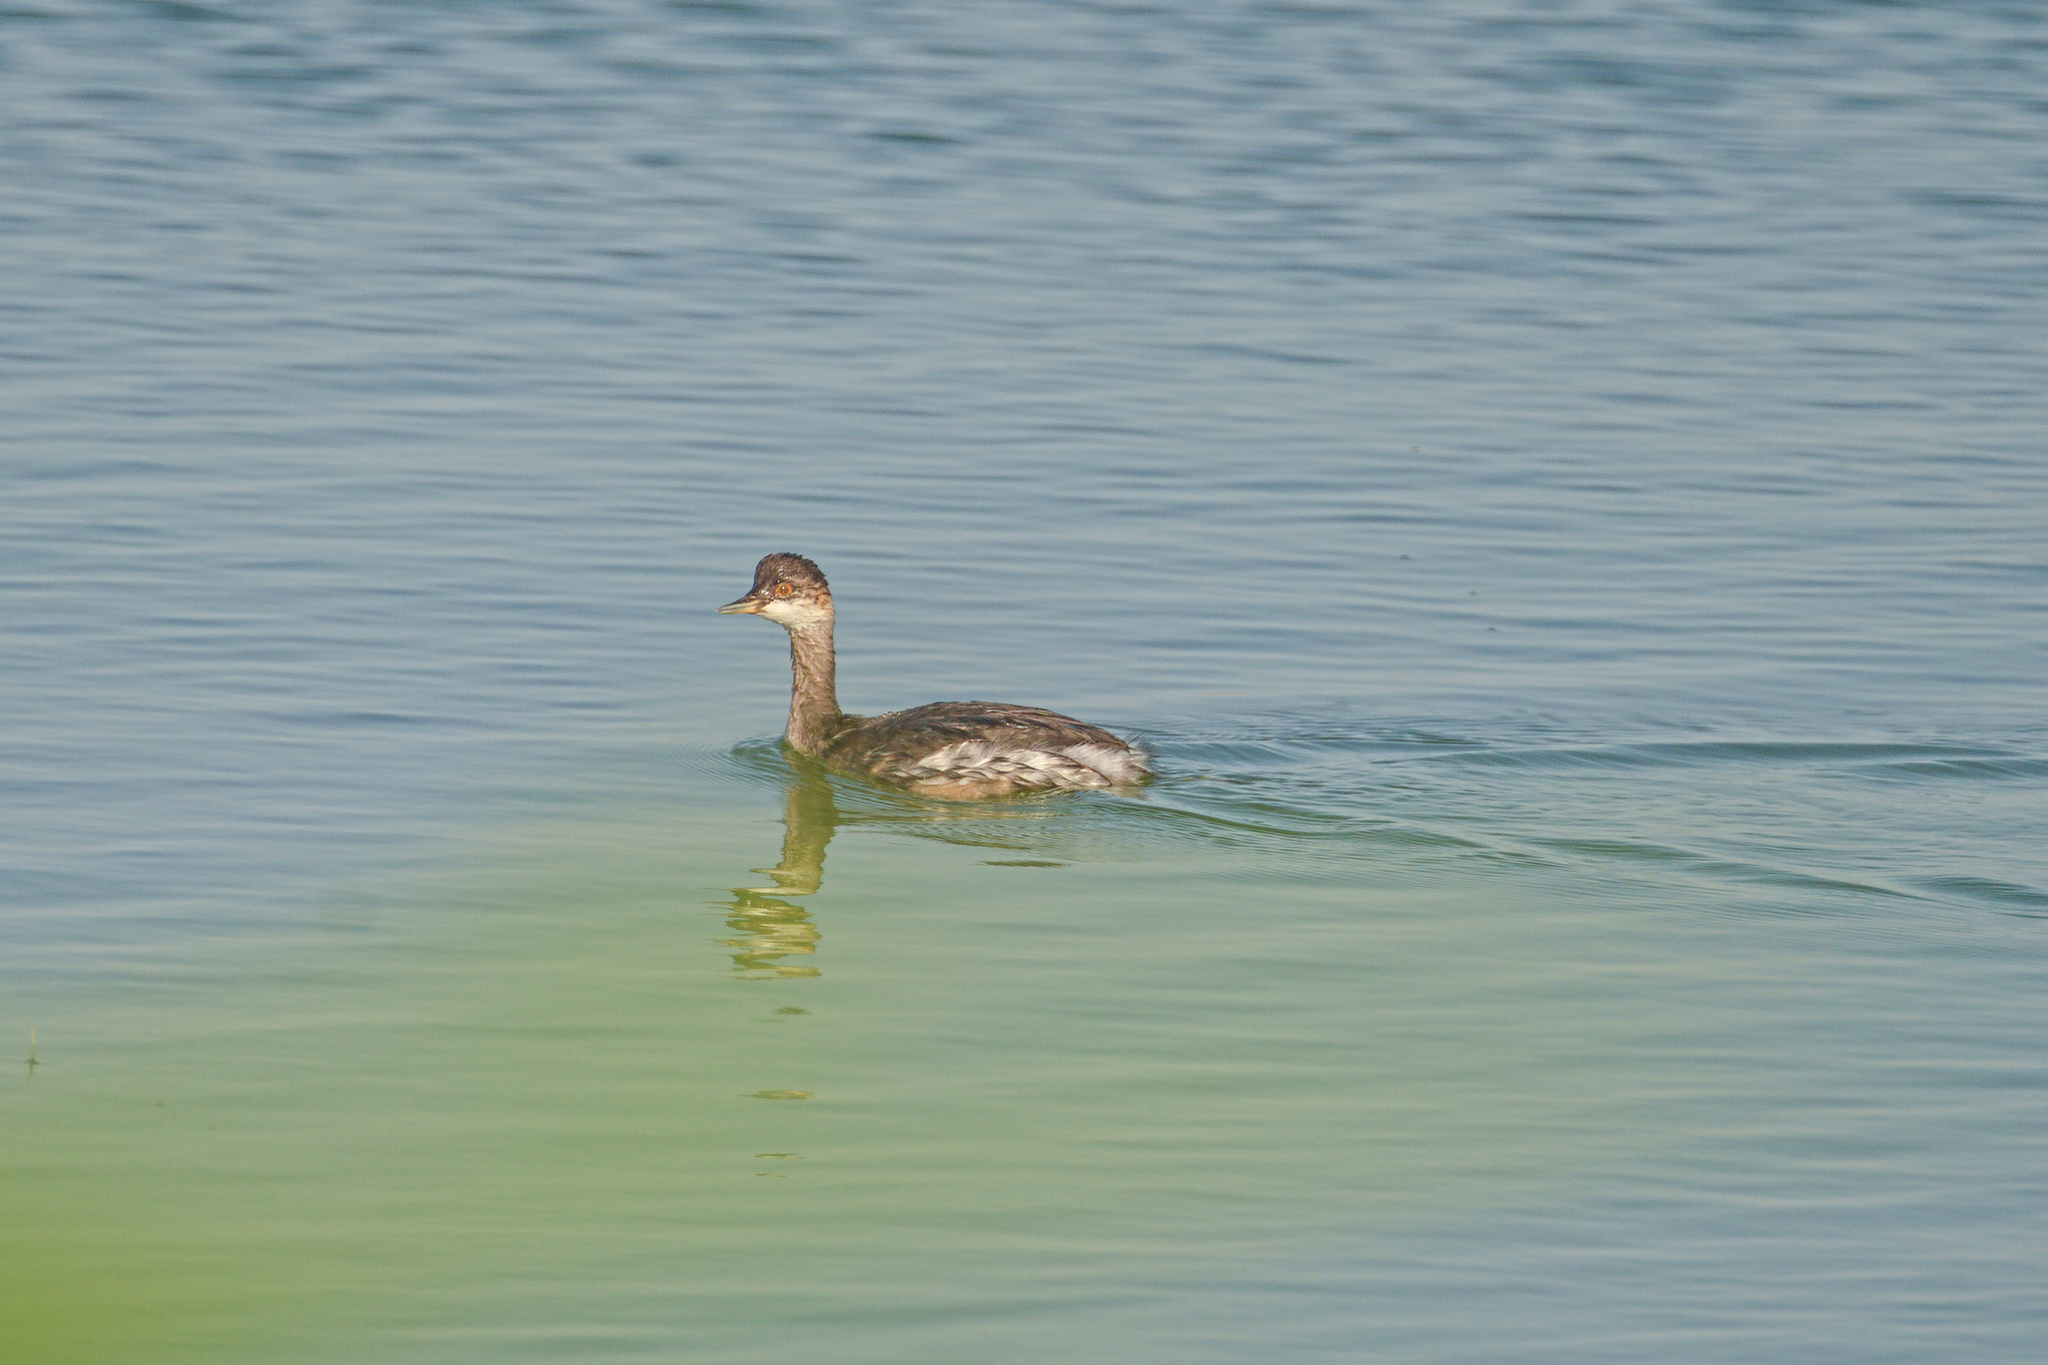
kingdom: Animalia
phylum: Chordata
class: Aves
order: Podicipediformes
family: Podicipedidae
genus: Podiceps
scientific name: Podiceps nigricollis
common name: Black-necked grebe
